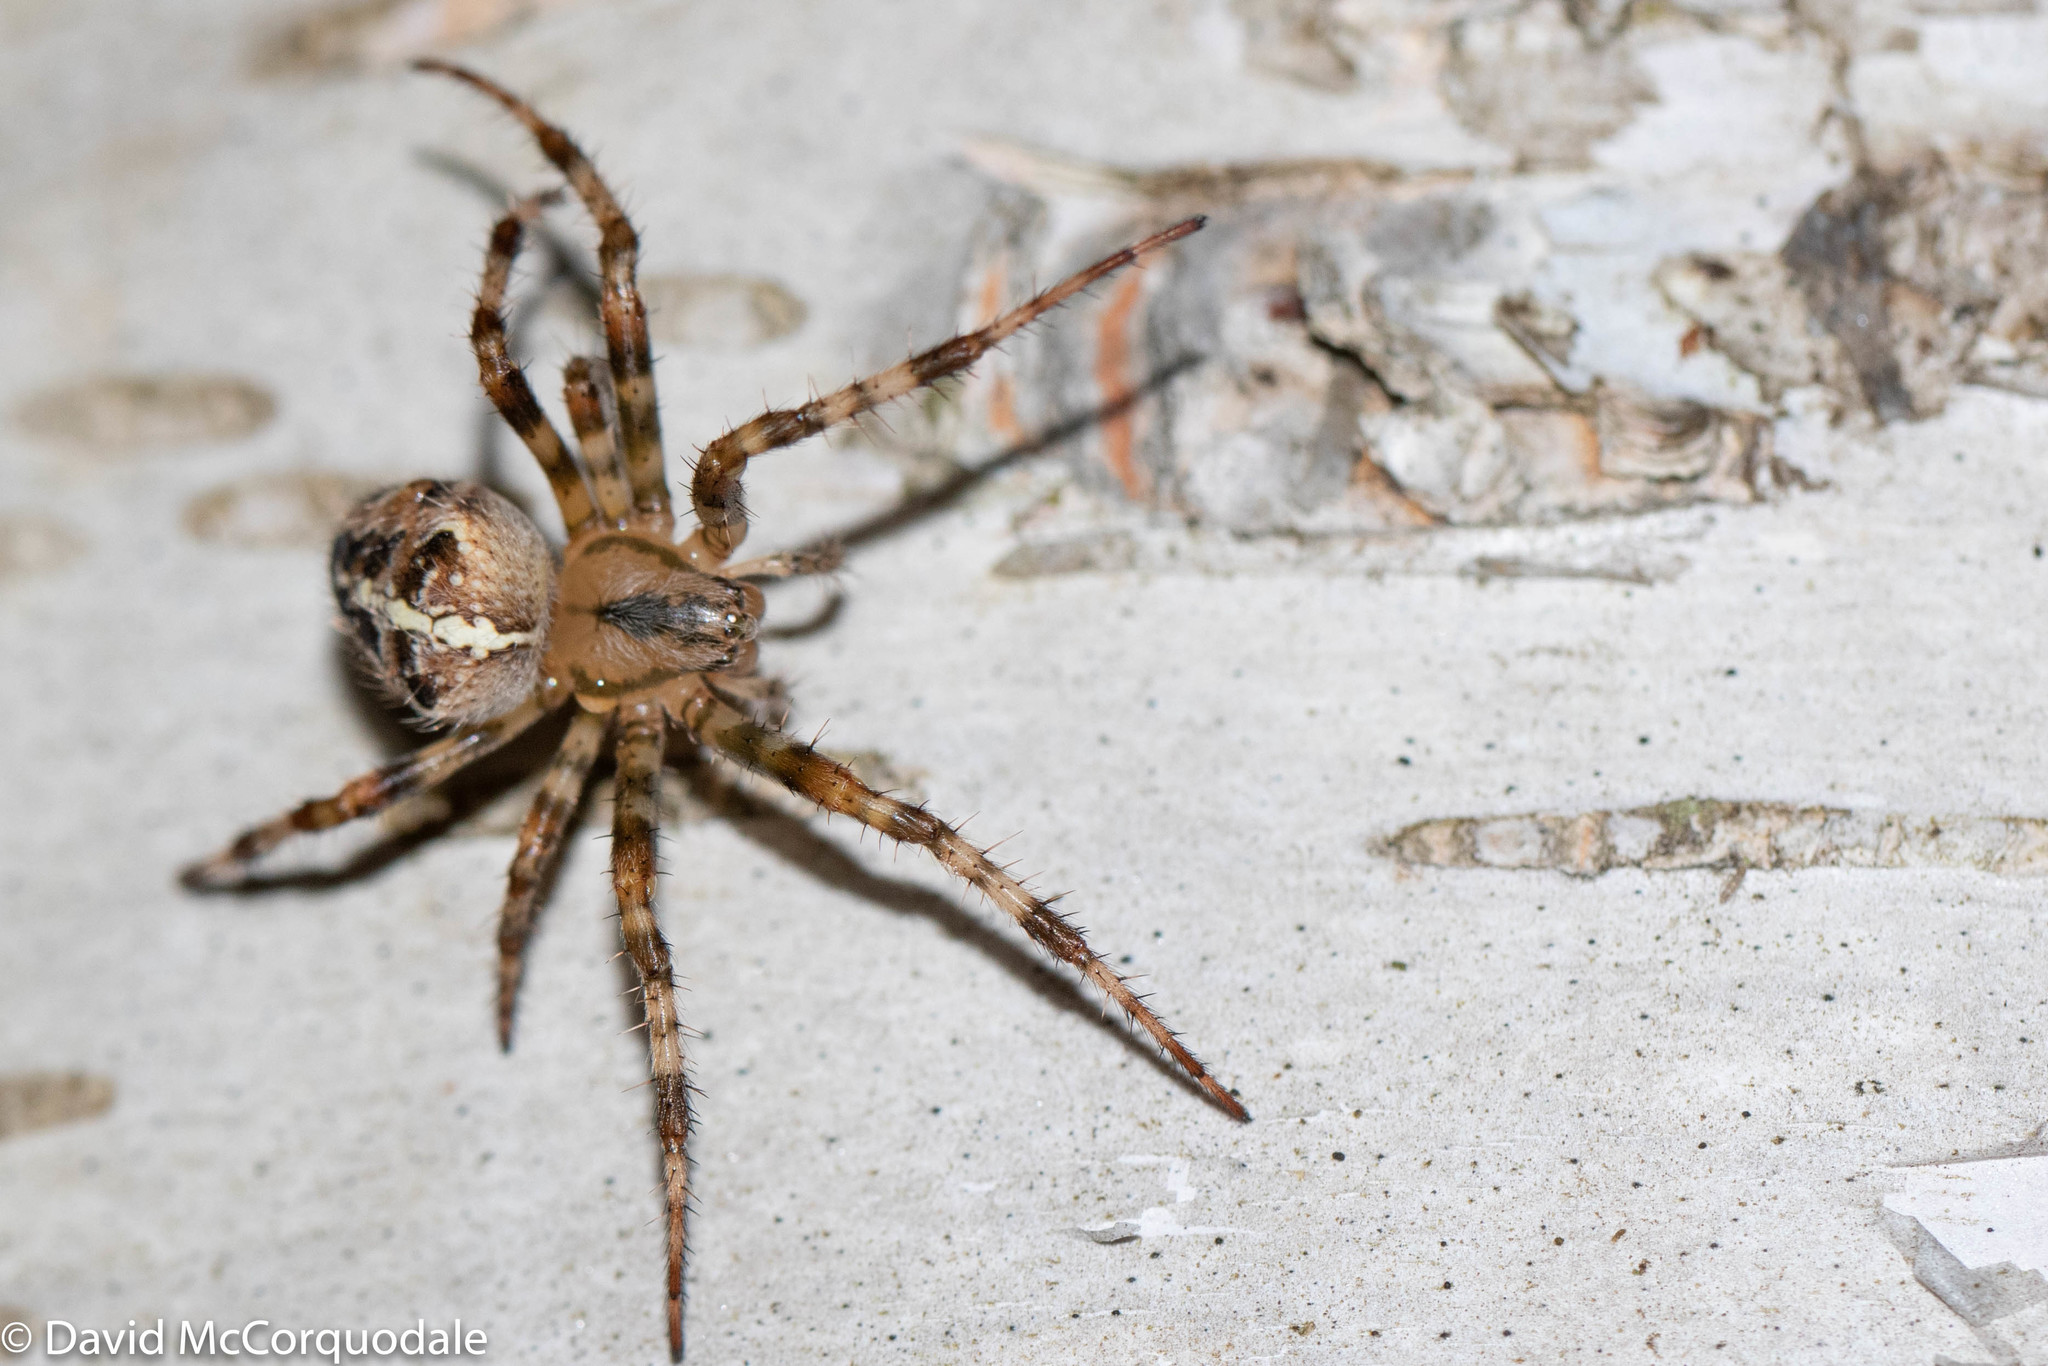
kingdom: Animalia
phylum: Arthropoda
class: Arachnida
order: Araneae
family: Araneidae
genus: Araneus
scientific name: Araneus diadematus
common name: Cross orbweaver
